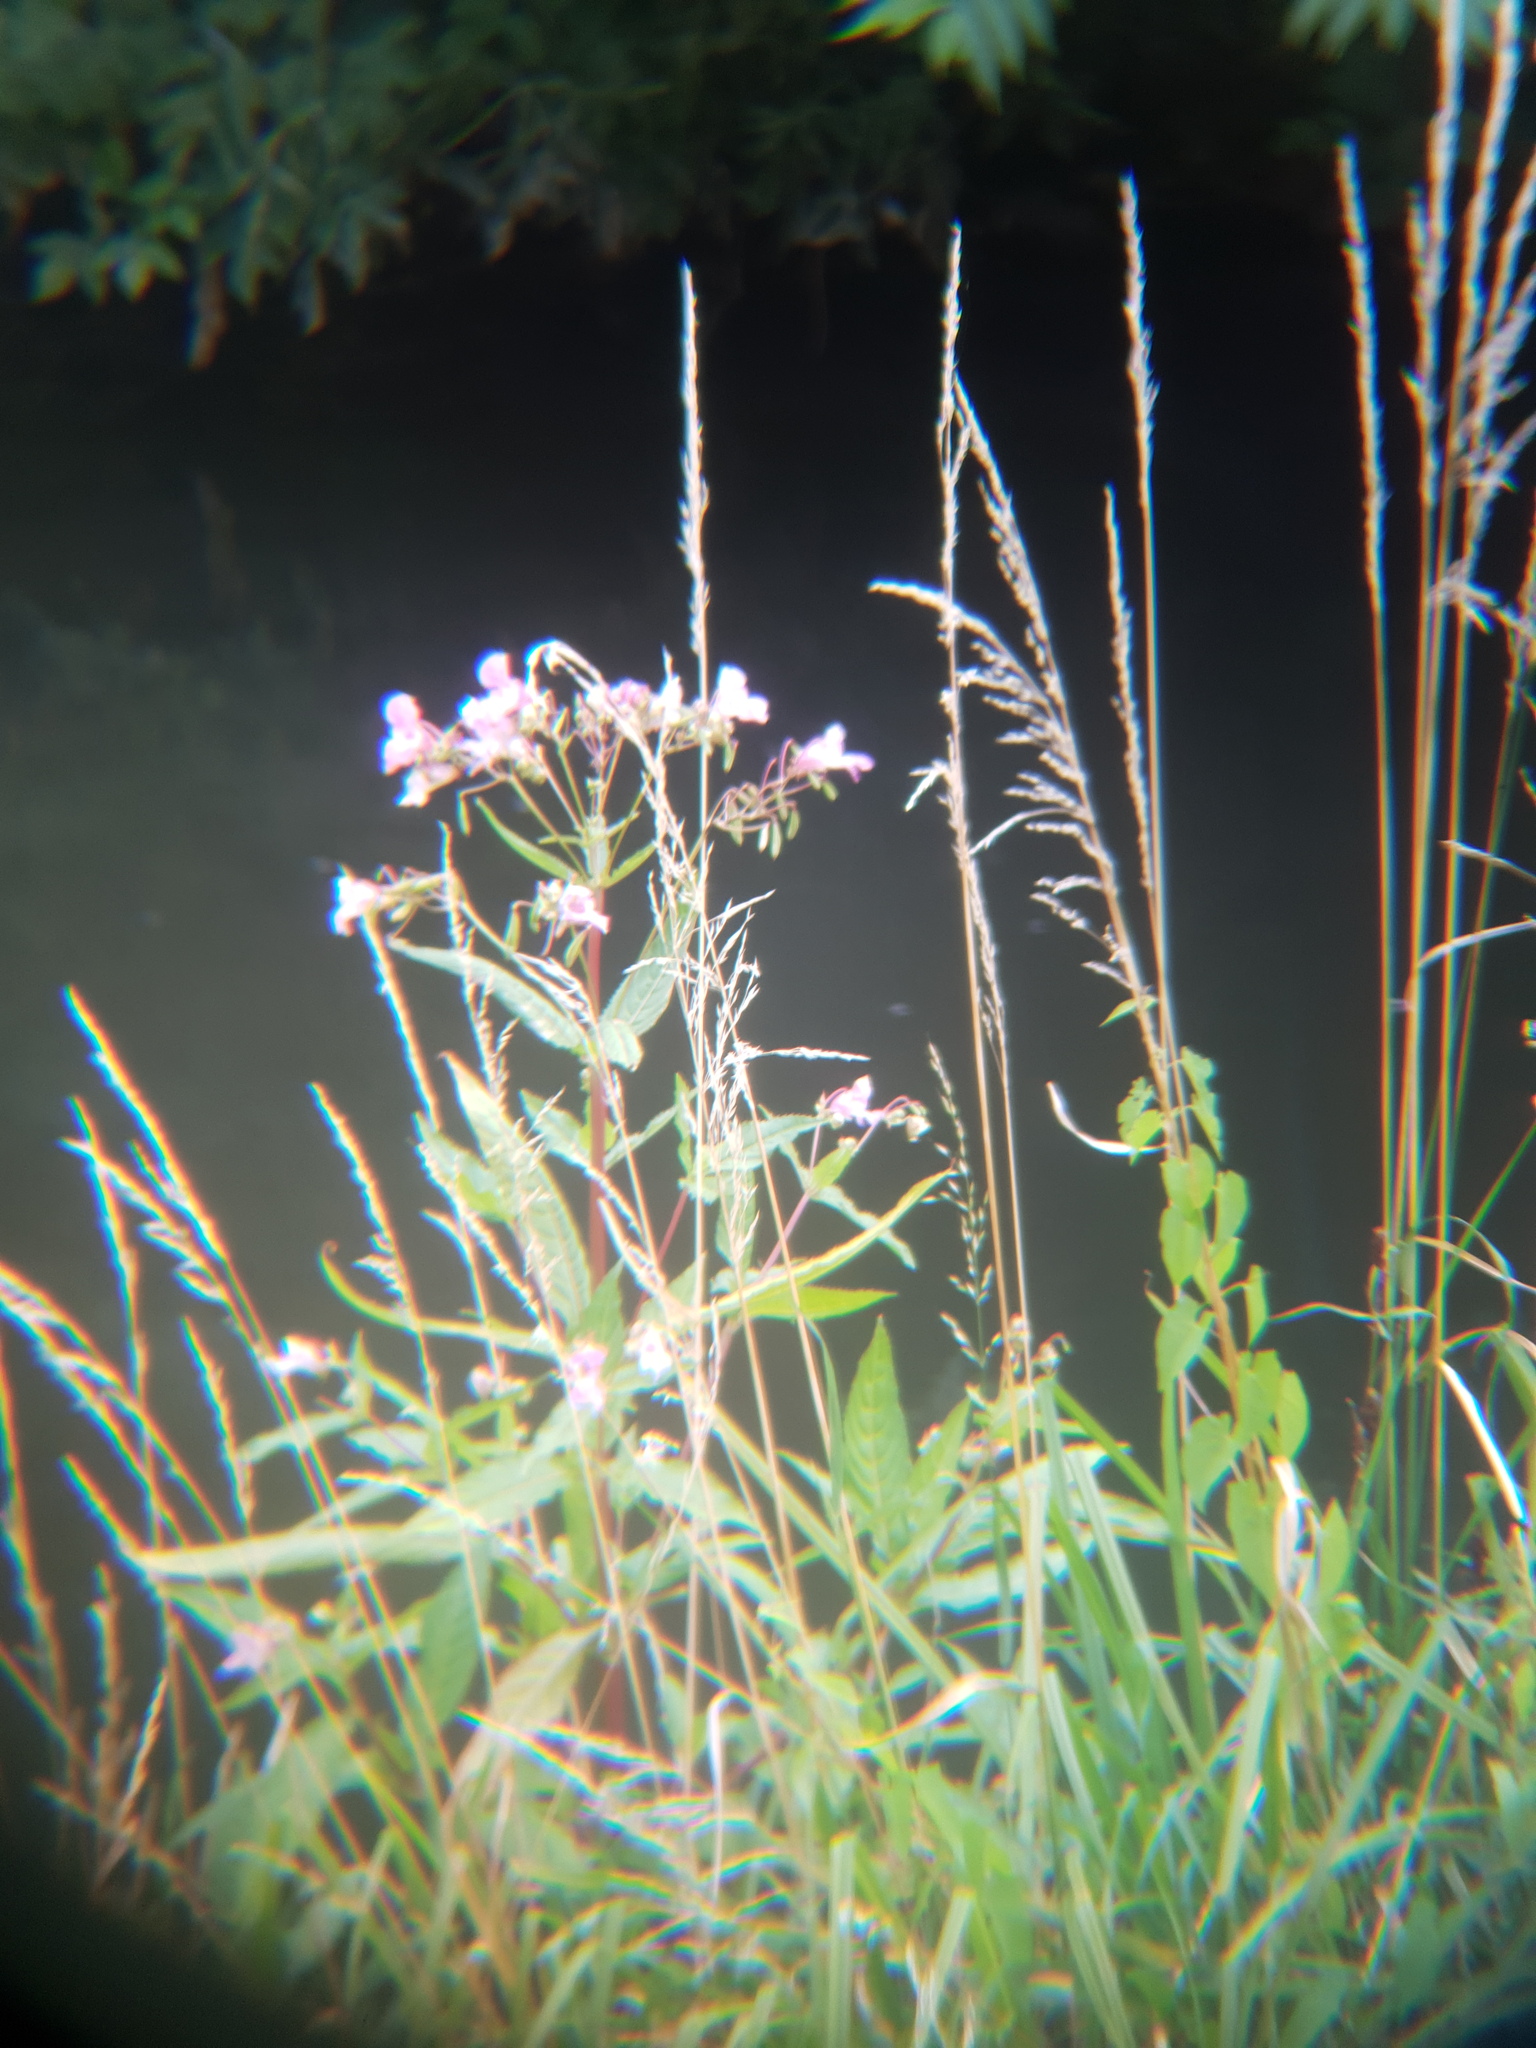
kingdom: Plantae
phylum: Tracheophyta
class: Magnoliopsida
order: Ericales
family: Balsaminaceae
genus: Impatiens
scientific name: Impatiens glandulifera
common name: Himalayan balsam
